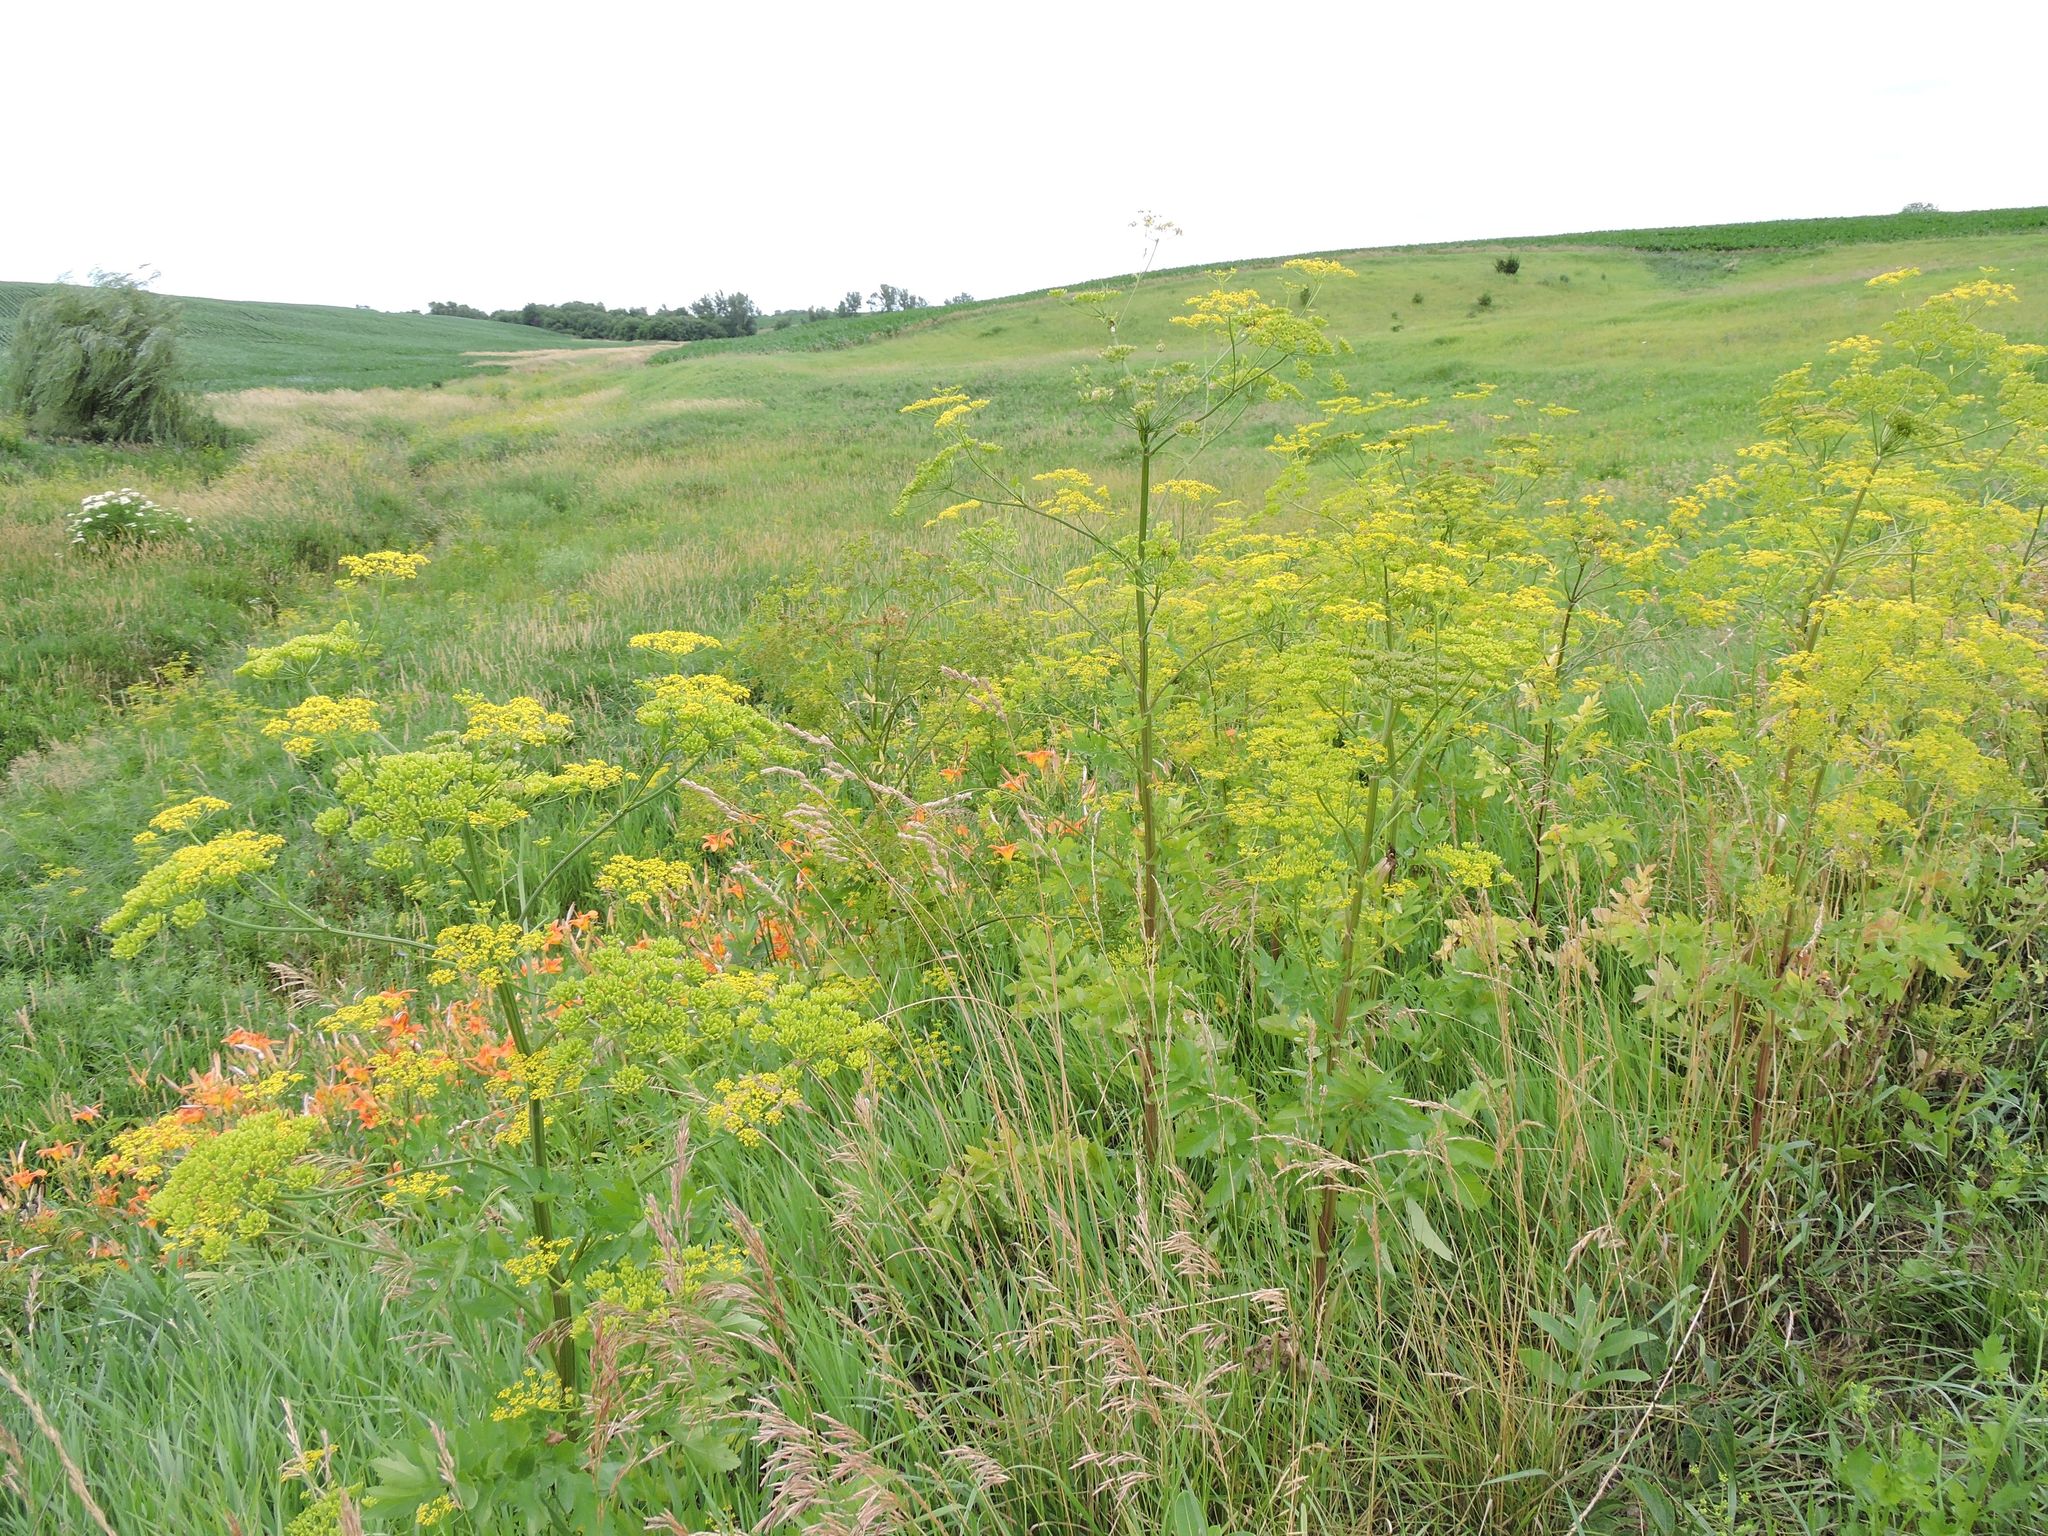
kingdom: Plantae
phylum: Tracheophyta
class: Magnoliopsida
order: Apiales
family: Apiaceae
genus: Pastinaca
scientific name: Pastinaca sativa
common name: Wild parsnip
